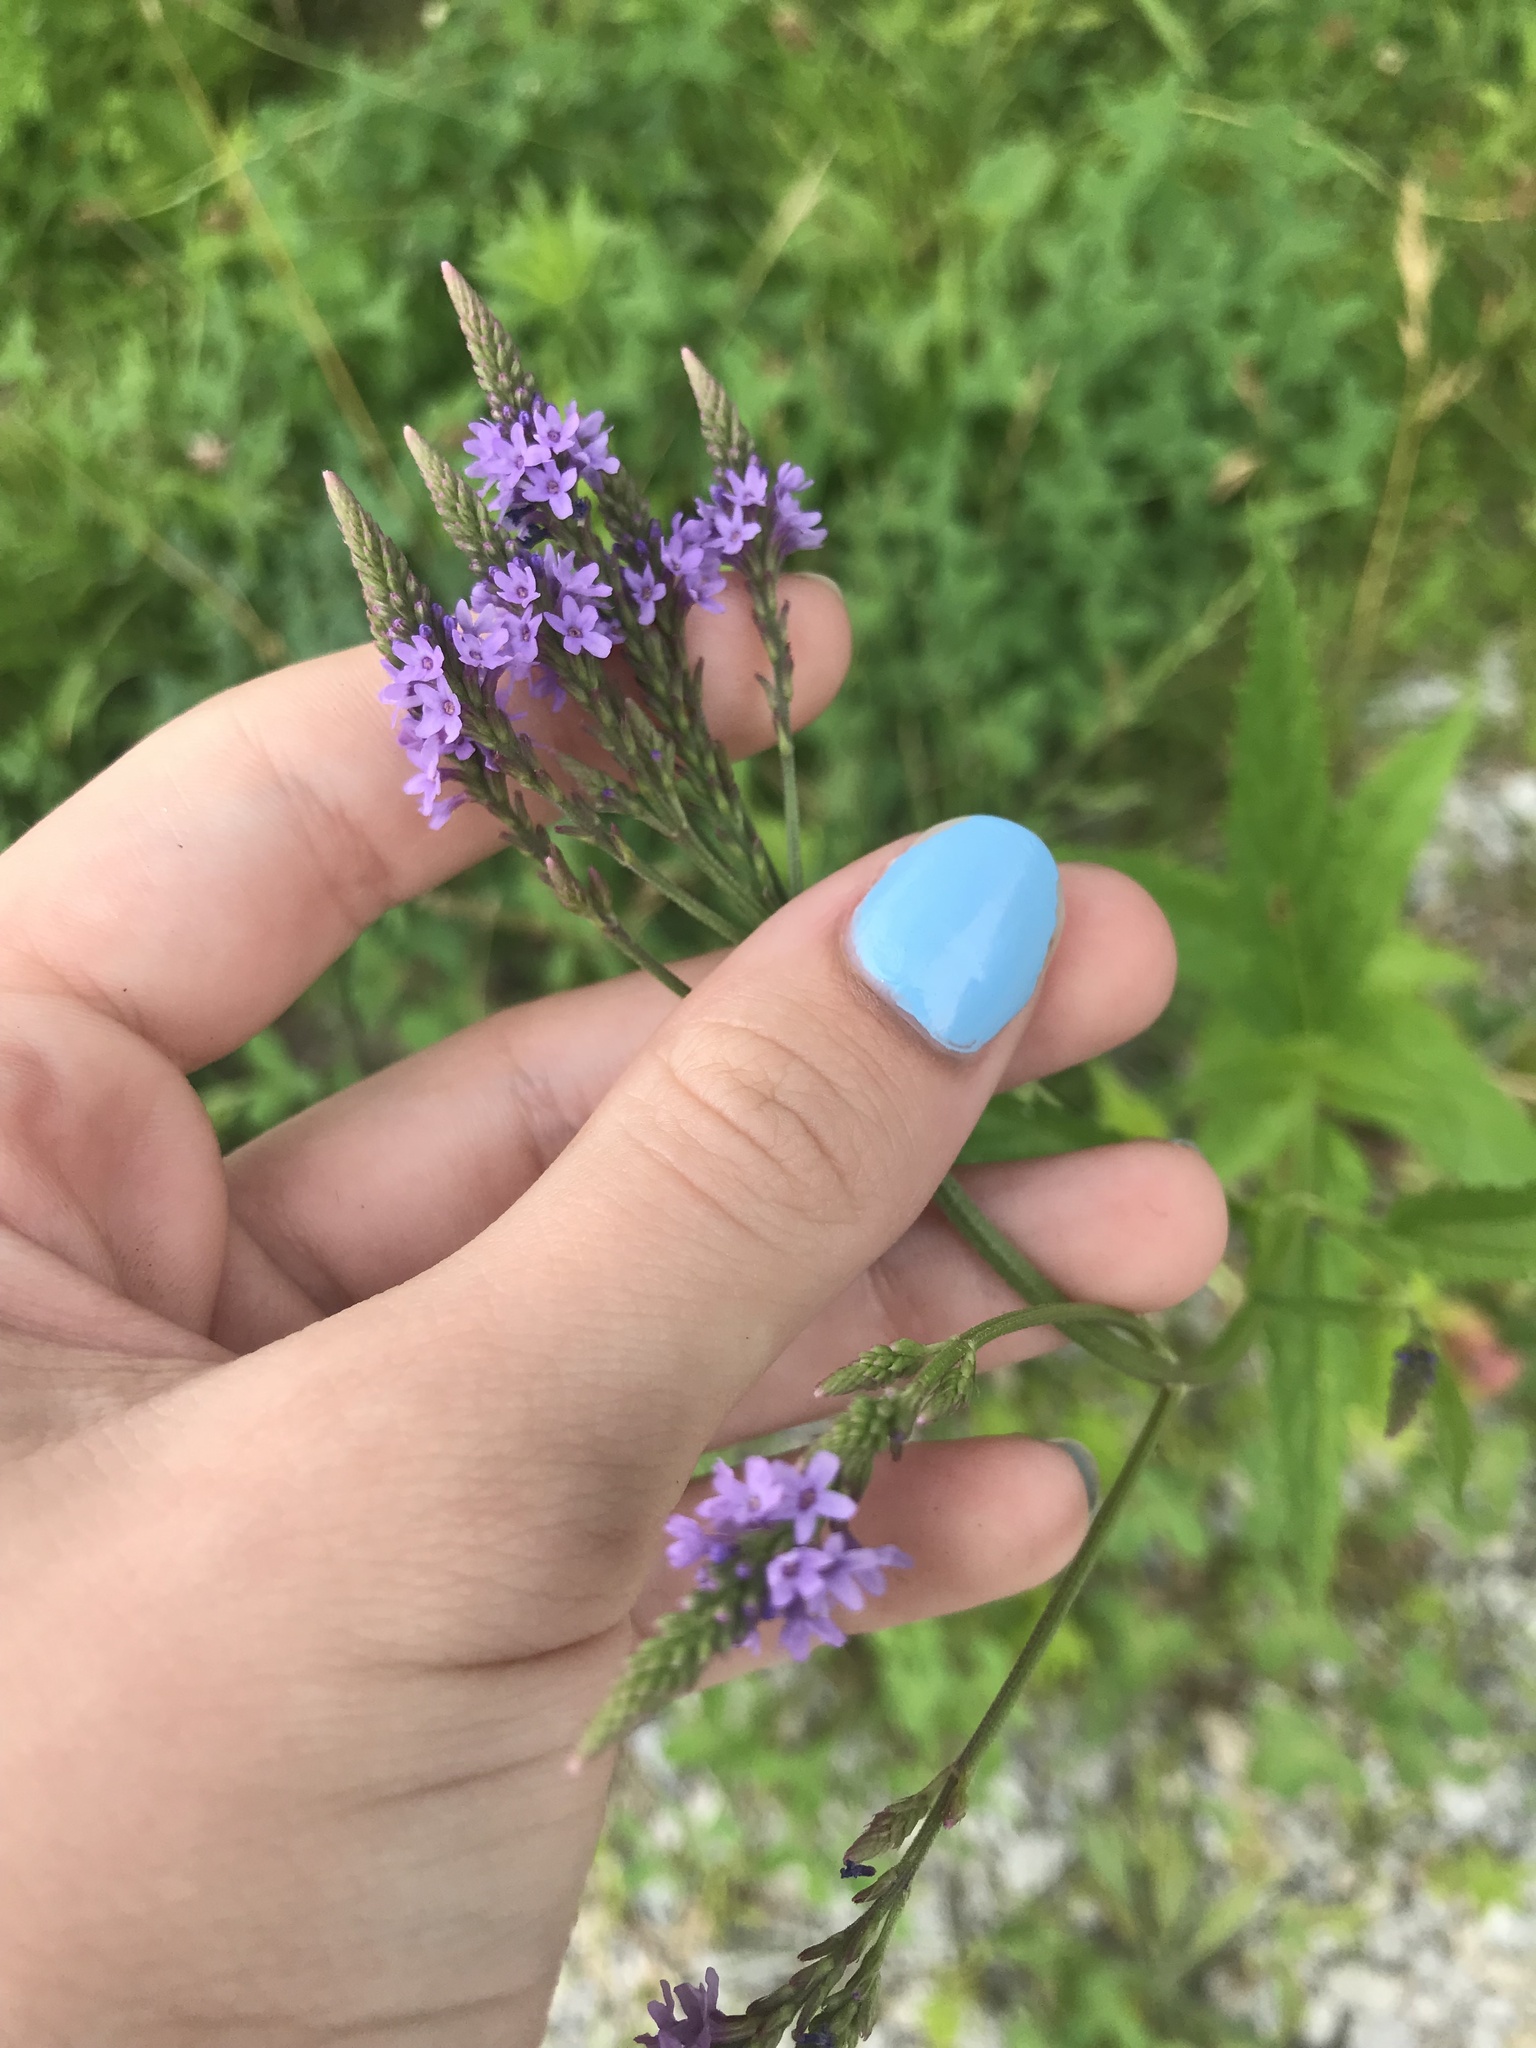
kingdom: Plantae
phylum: Tracheophyta
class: Magnoliopsida
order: Lamiales
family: Verbenaceae
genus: Verbena
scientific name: Verbena hastata
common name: American blue vervain
